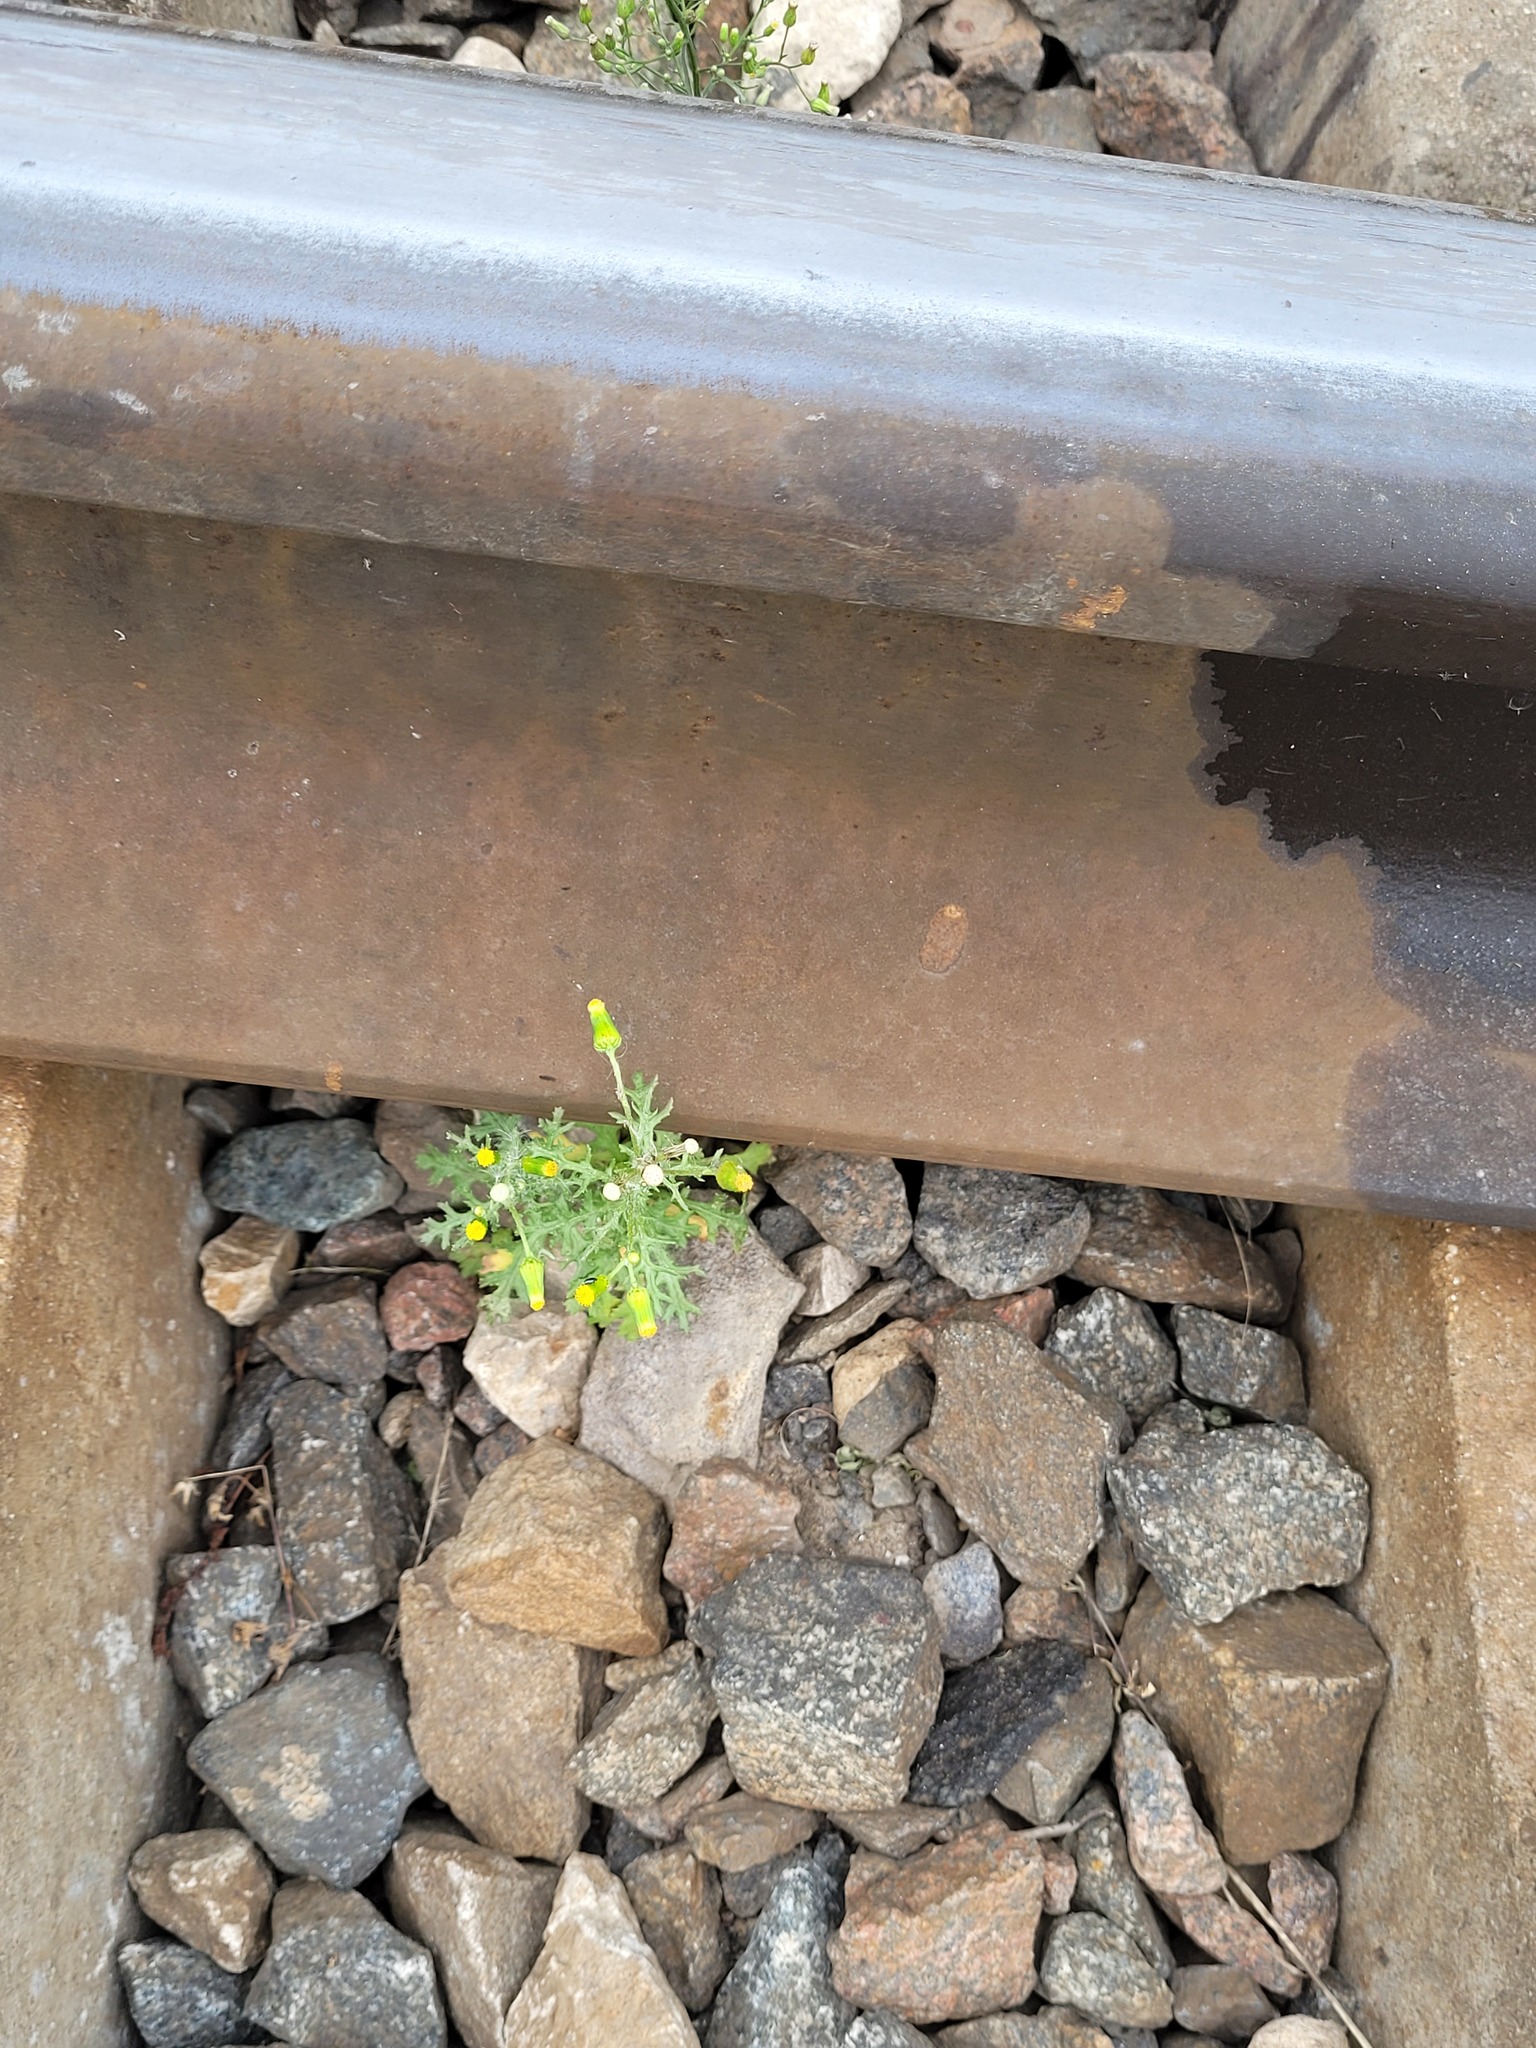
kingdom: Plantae
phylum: Tracheophyta
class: Magnoliopsida
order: Asterales
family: Asteraceae
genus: Senecio
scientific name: Senecio vulgaris
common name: Old-man-in-the-spring
